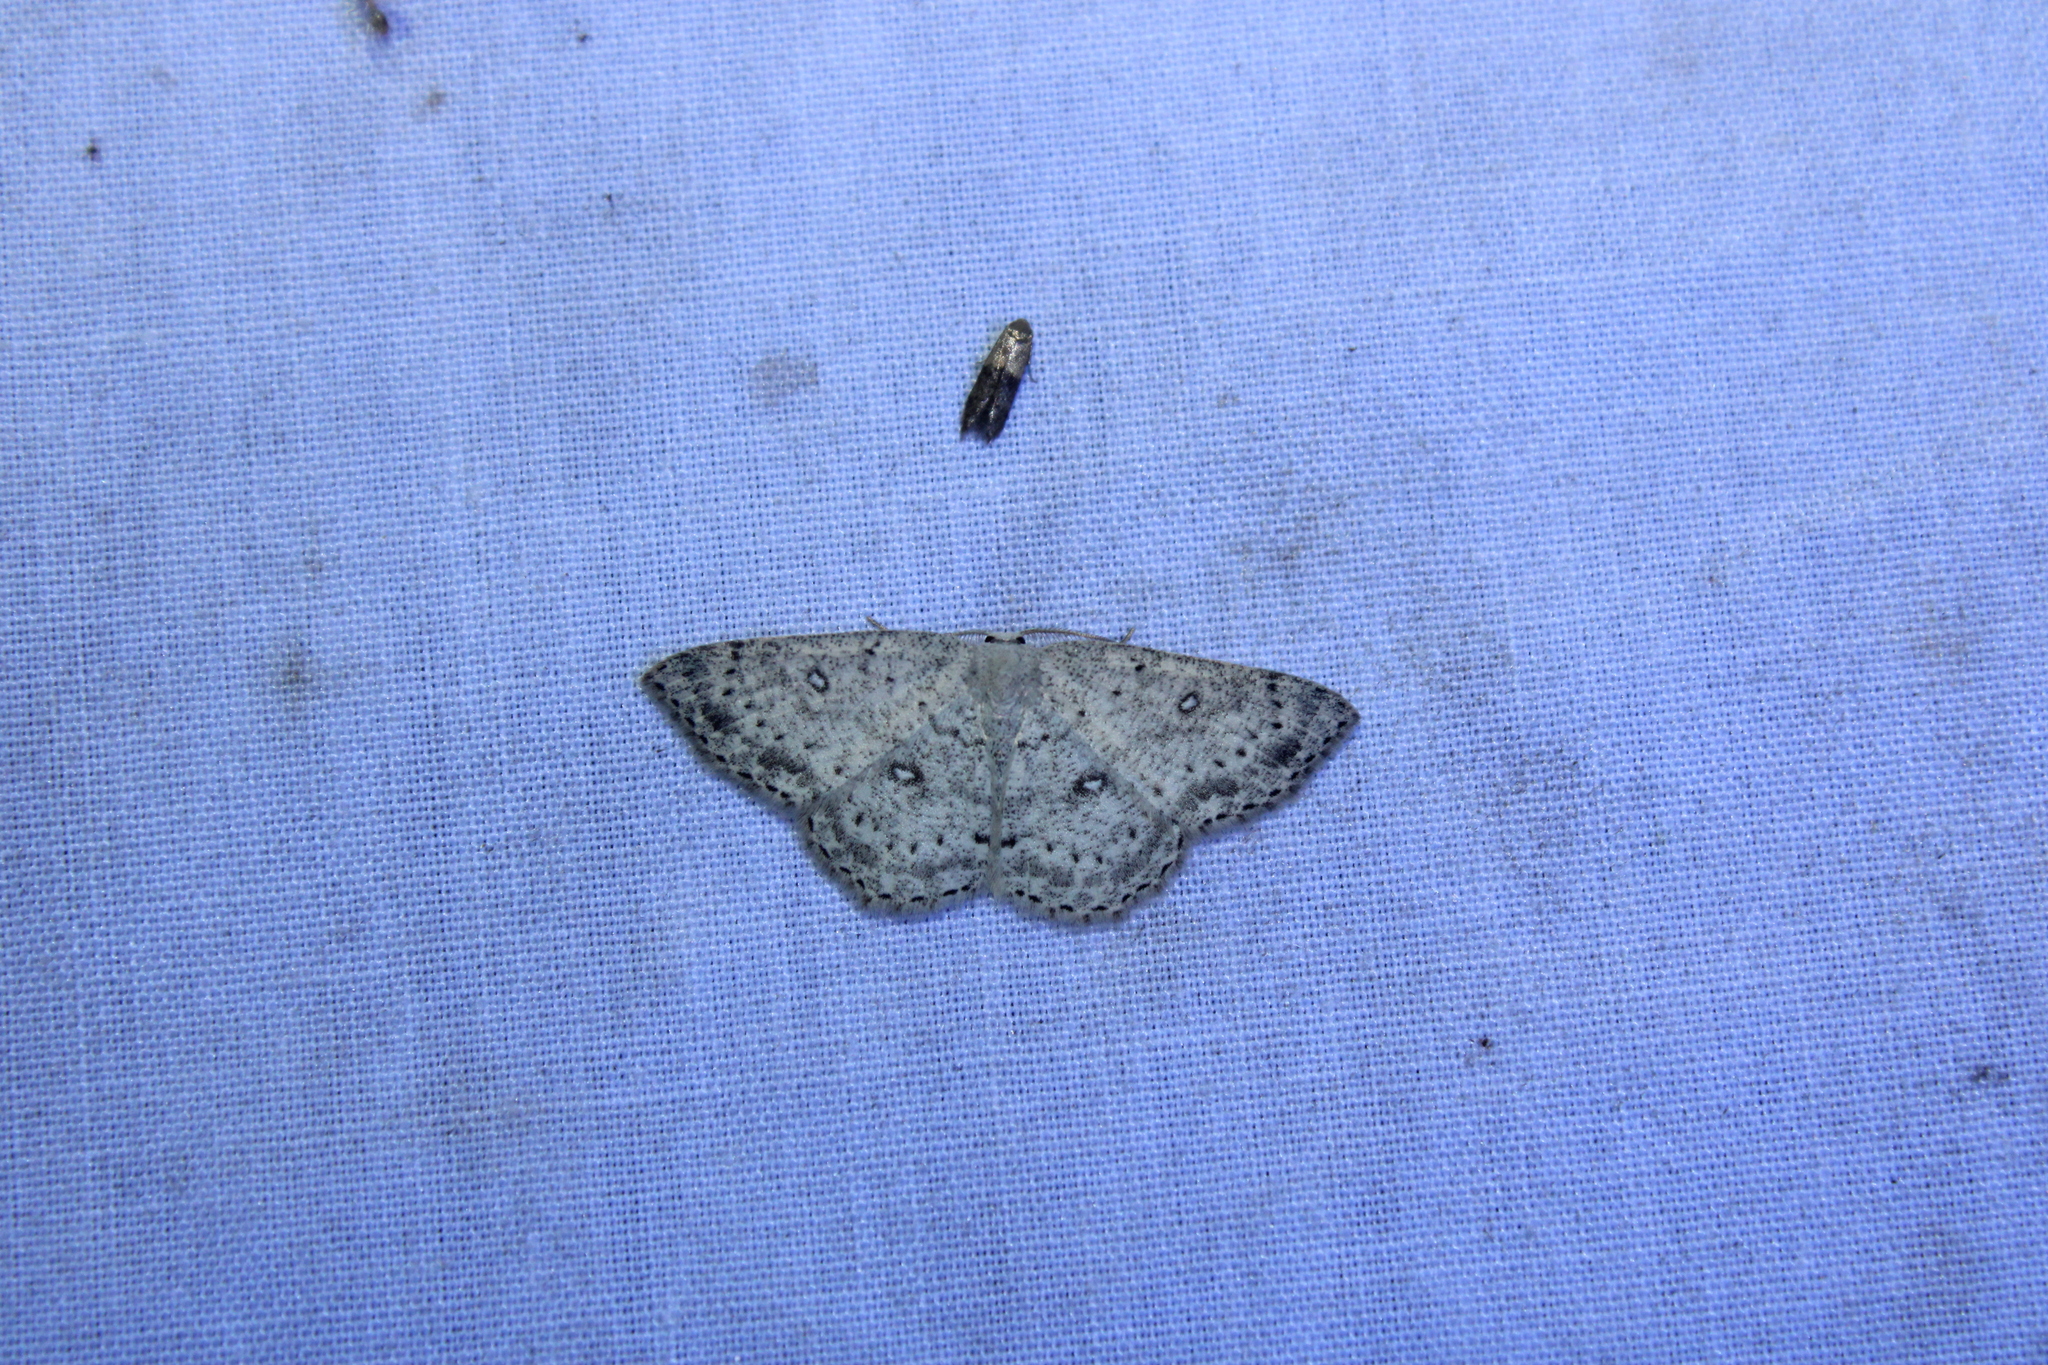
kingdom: Animalia
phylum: Arthropoda
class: Insecta
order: Lepidoptera
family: Geometridae
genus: Cyclophora
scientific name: Cyclophora pendulinaria
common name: Sweet fern geometer
